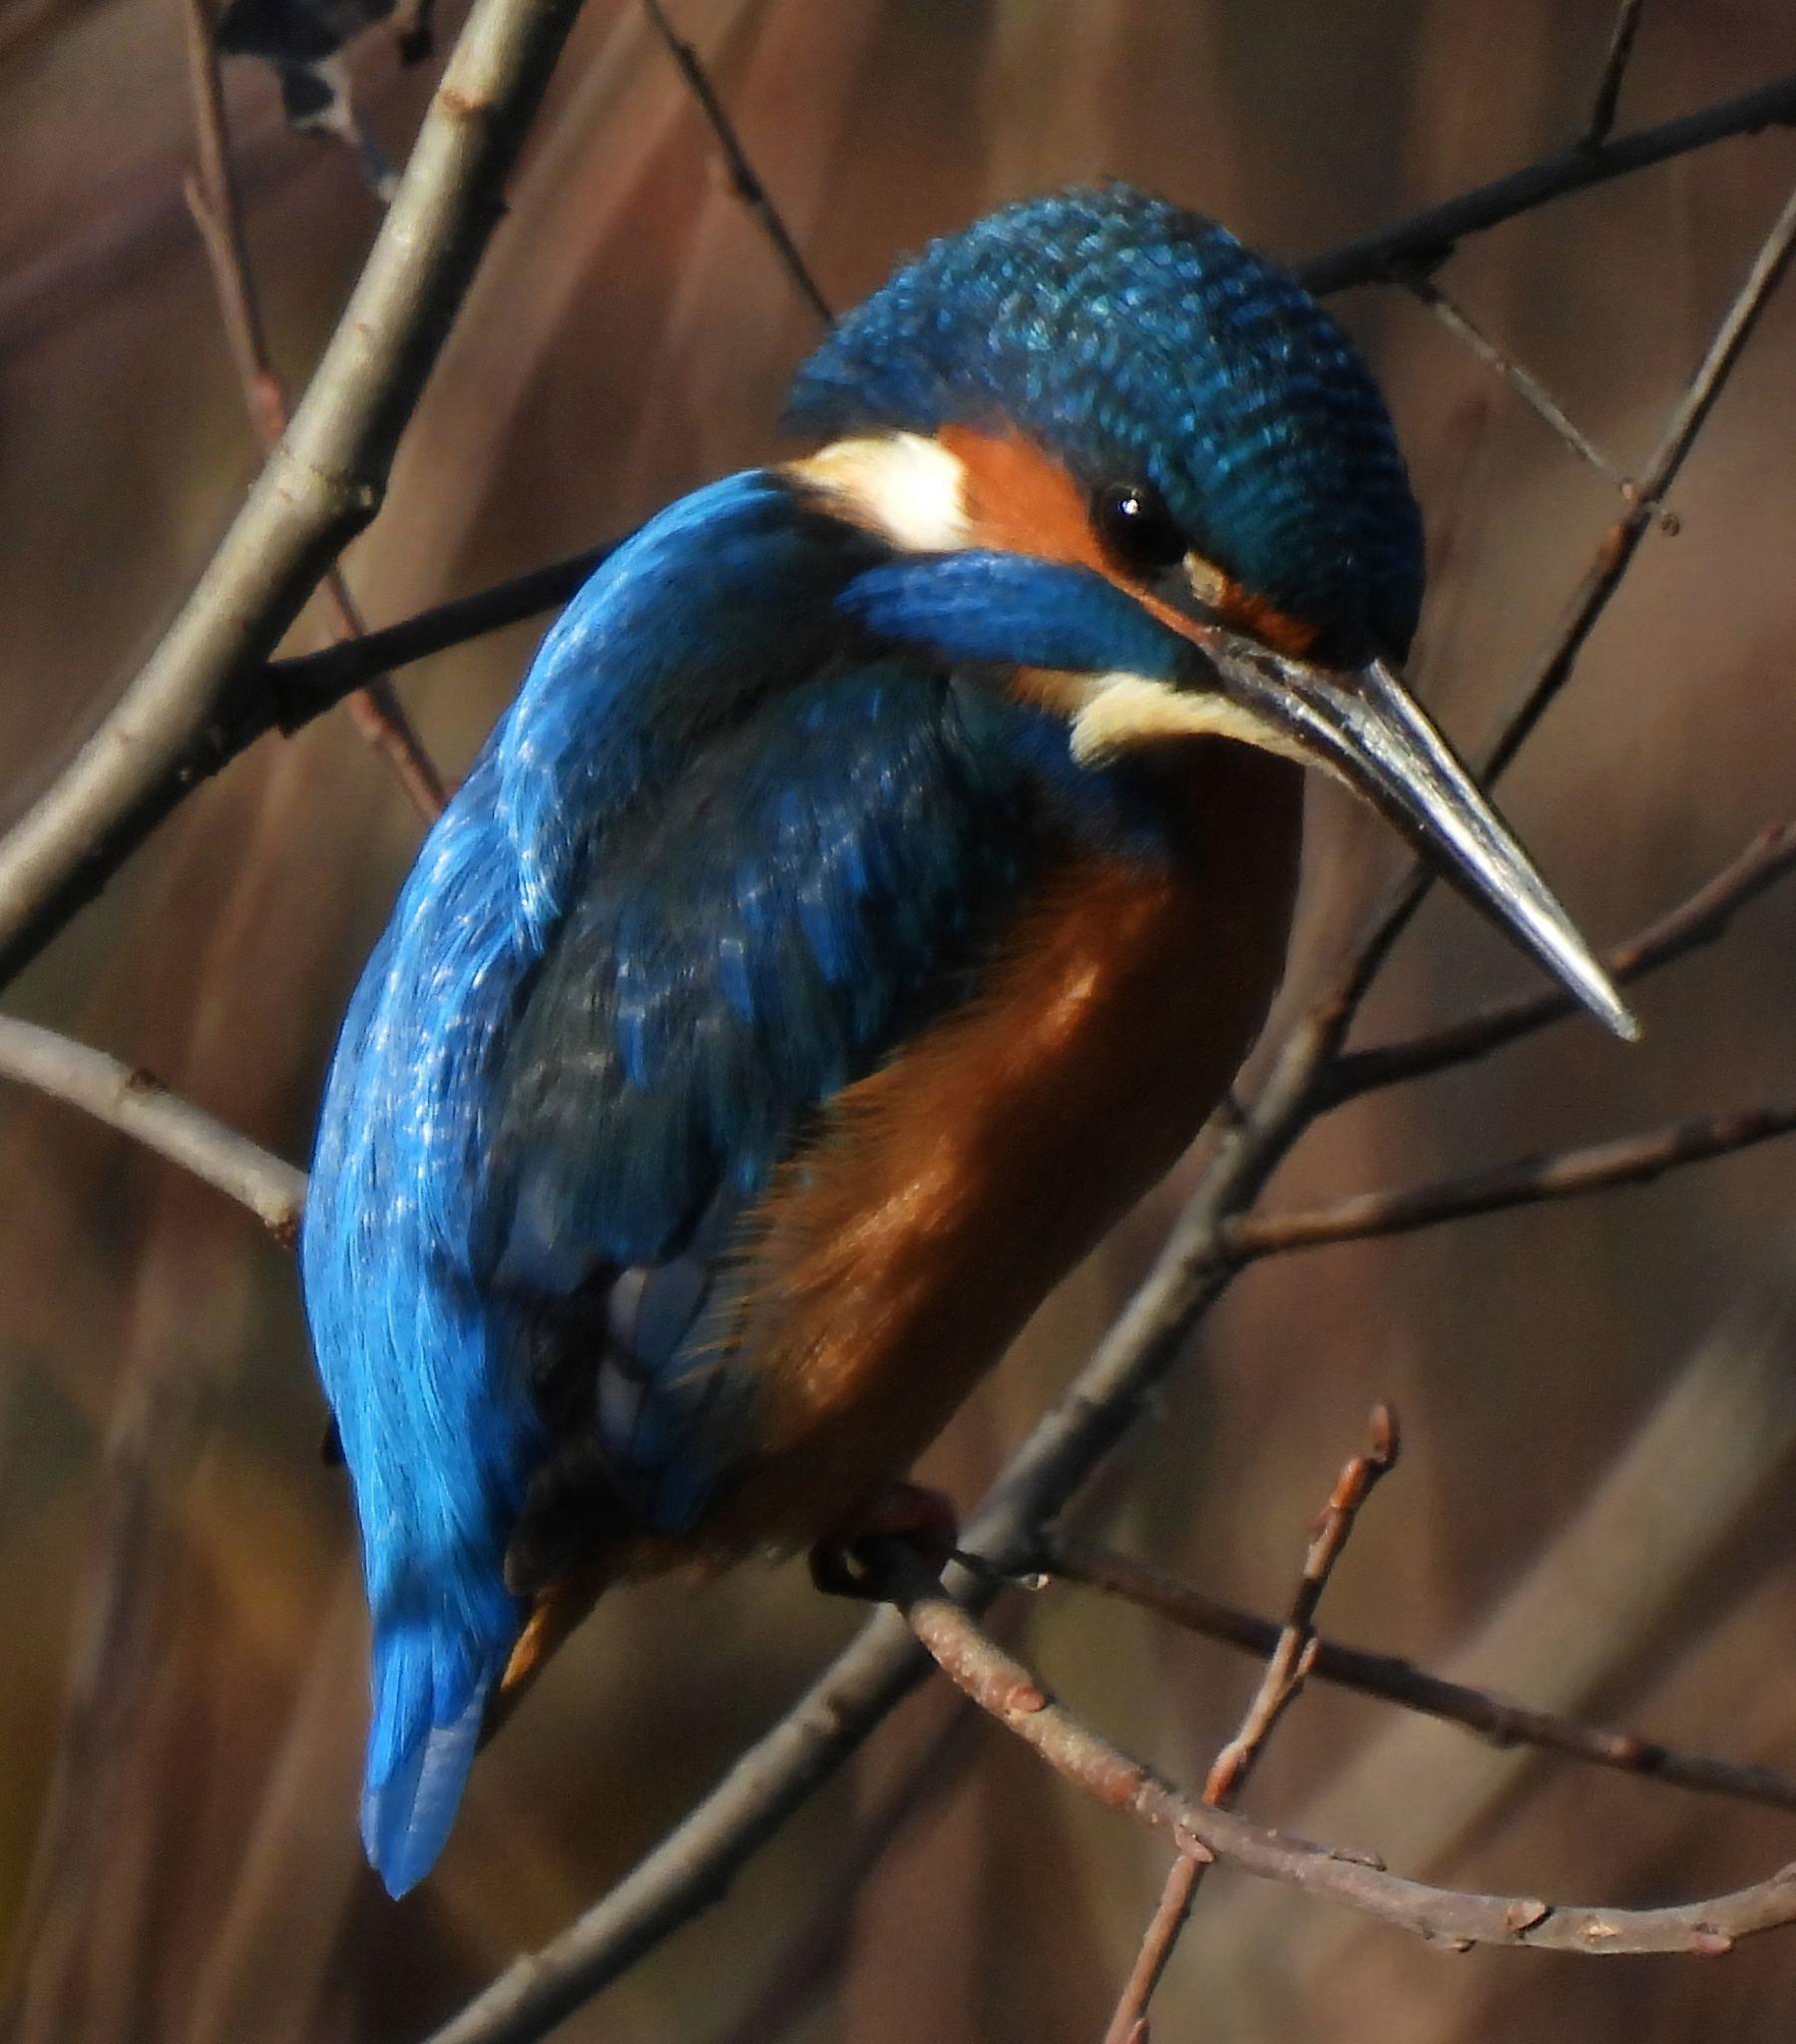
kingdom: Animalia
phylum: Chordata
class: Aves
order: Coraciiformes
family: Alcedinidae
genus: Alcedo
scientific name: Alcedo atthis
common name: Common kingfisher
